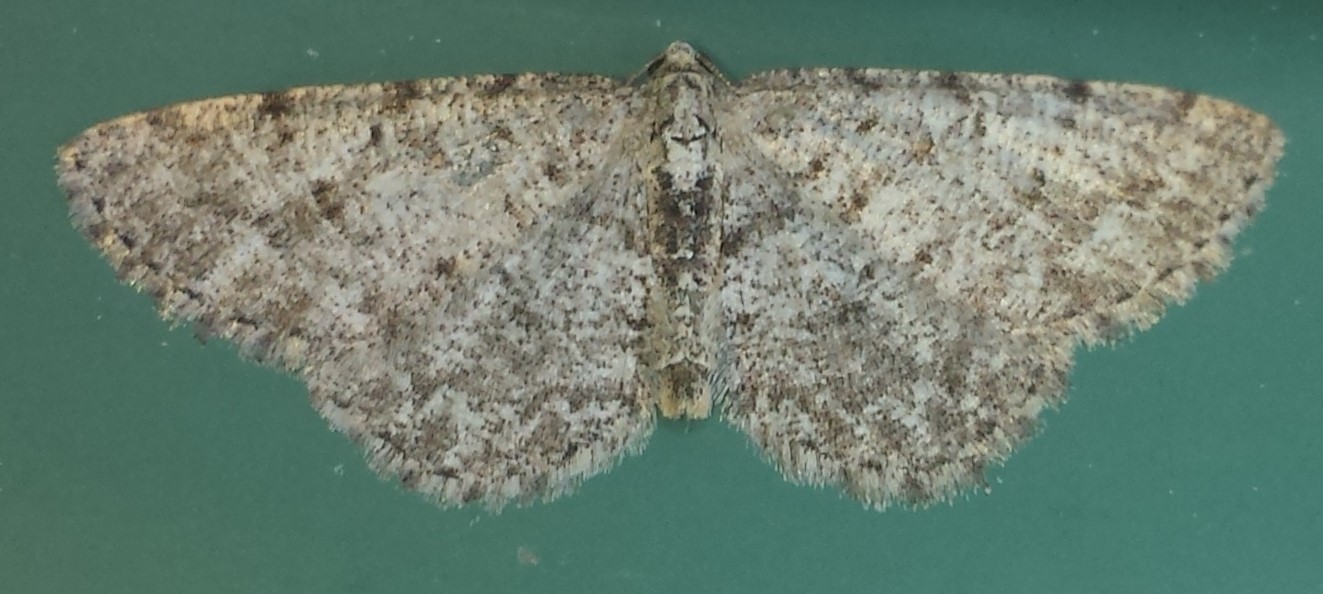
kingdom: Animalia
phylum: Arthropoda
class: Insecta
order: Lepidoptera
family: Geometridae
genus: Aethalura
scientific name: Aethalura intertexta
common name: Four-barred gray
